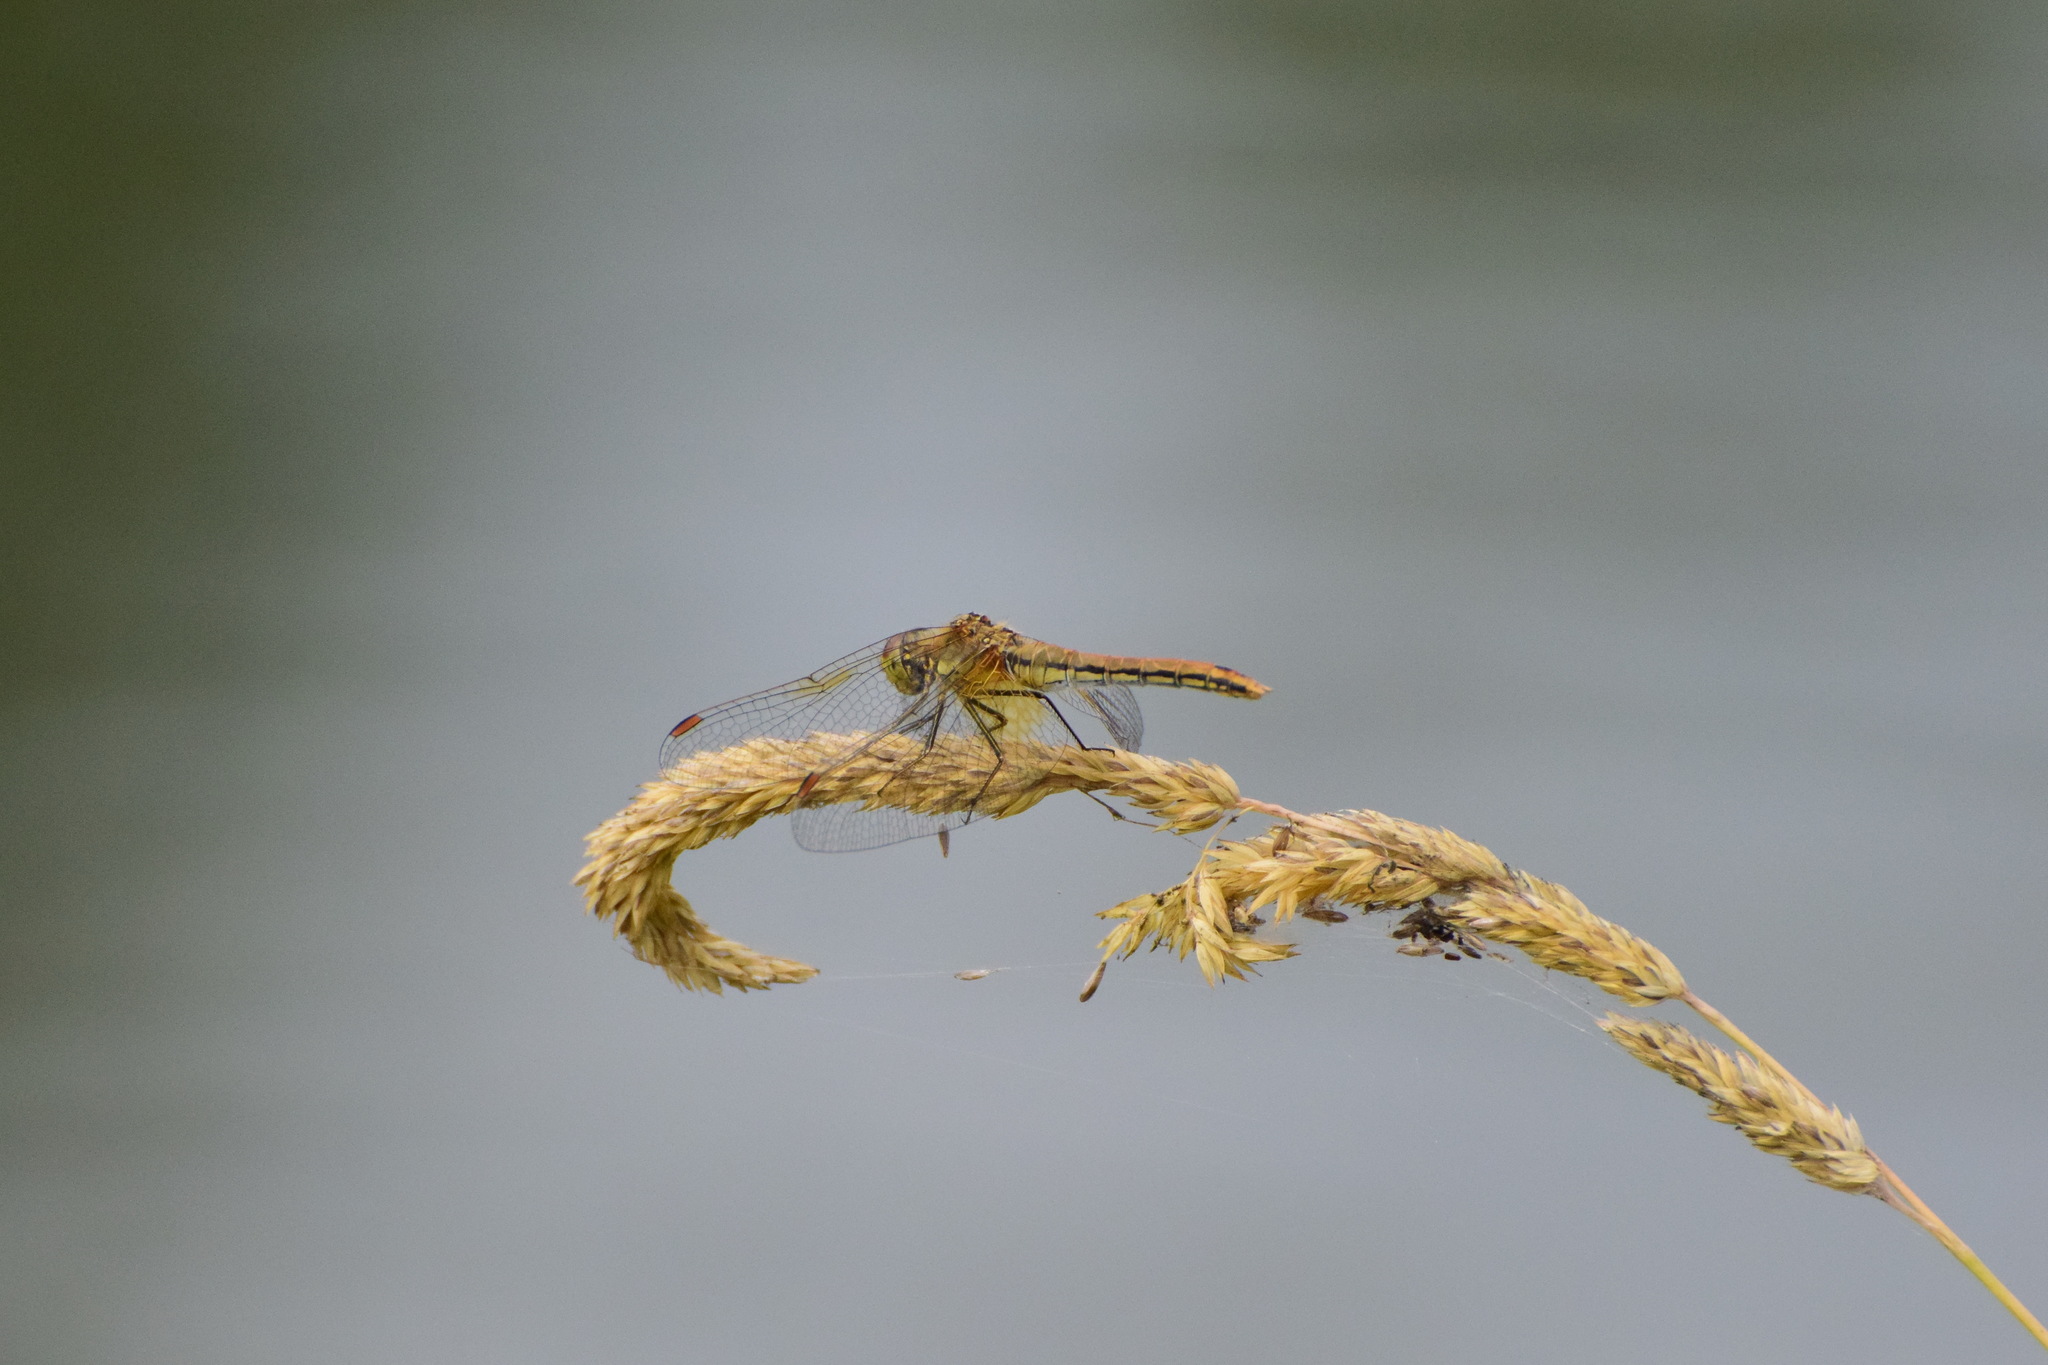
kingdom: Animalia
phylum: Arthropoda
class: Insecta
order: Odonata
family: Libellulidae
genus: Sympetrum
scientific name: Sympetrum flaveolum
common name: Yellow-winged darter
